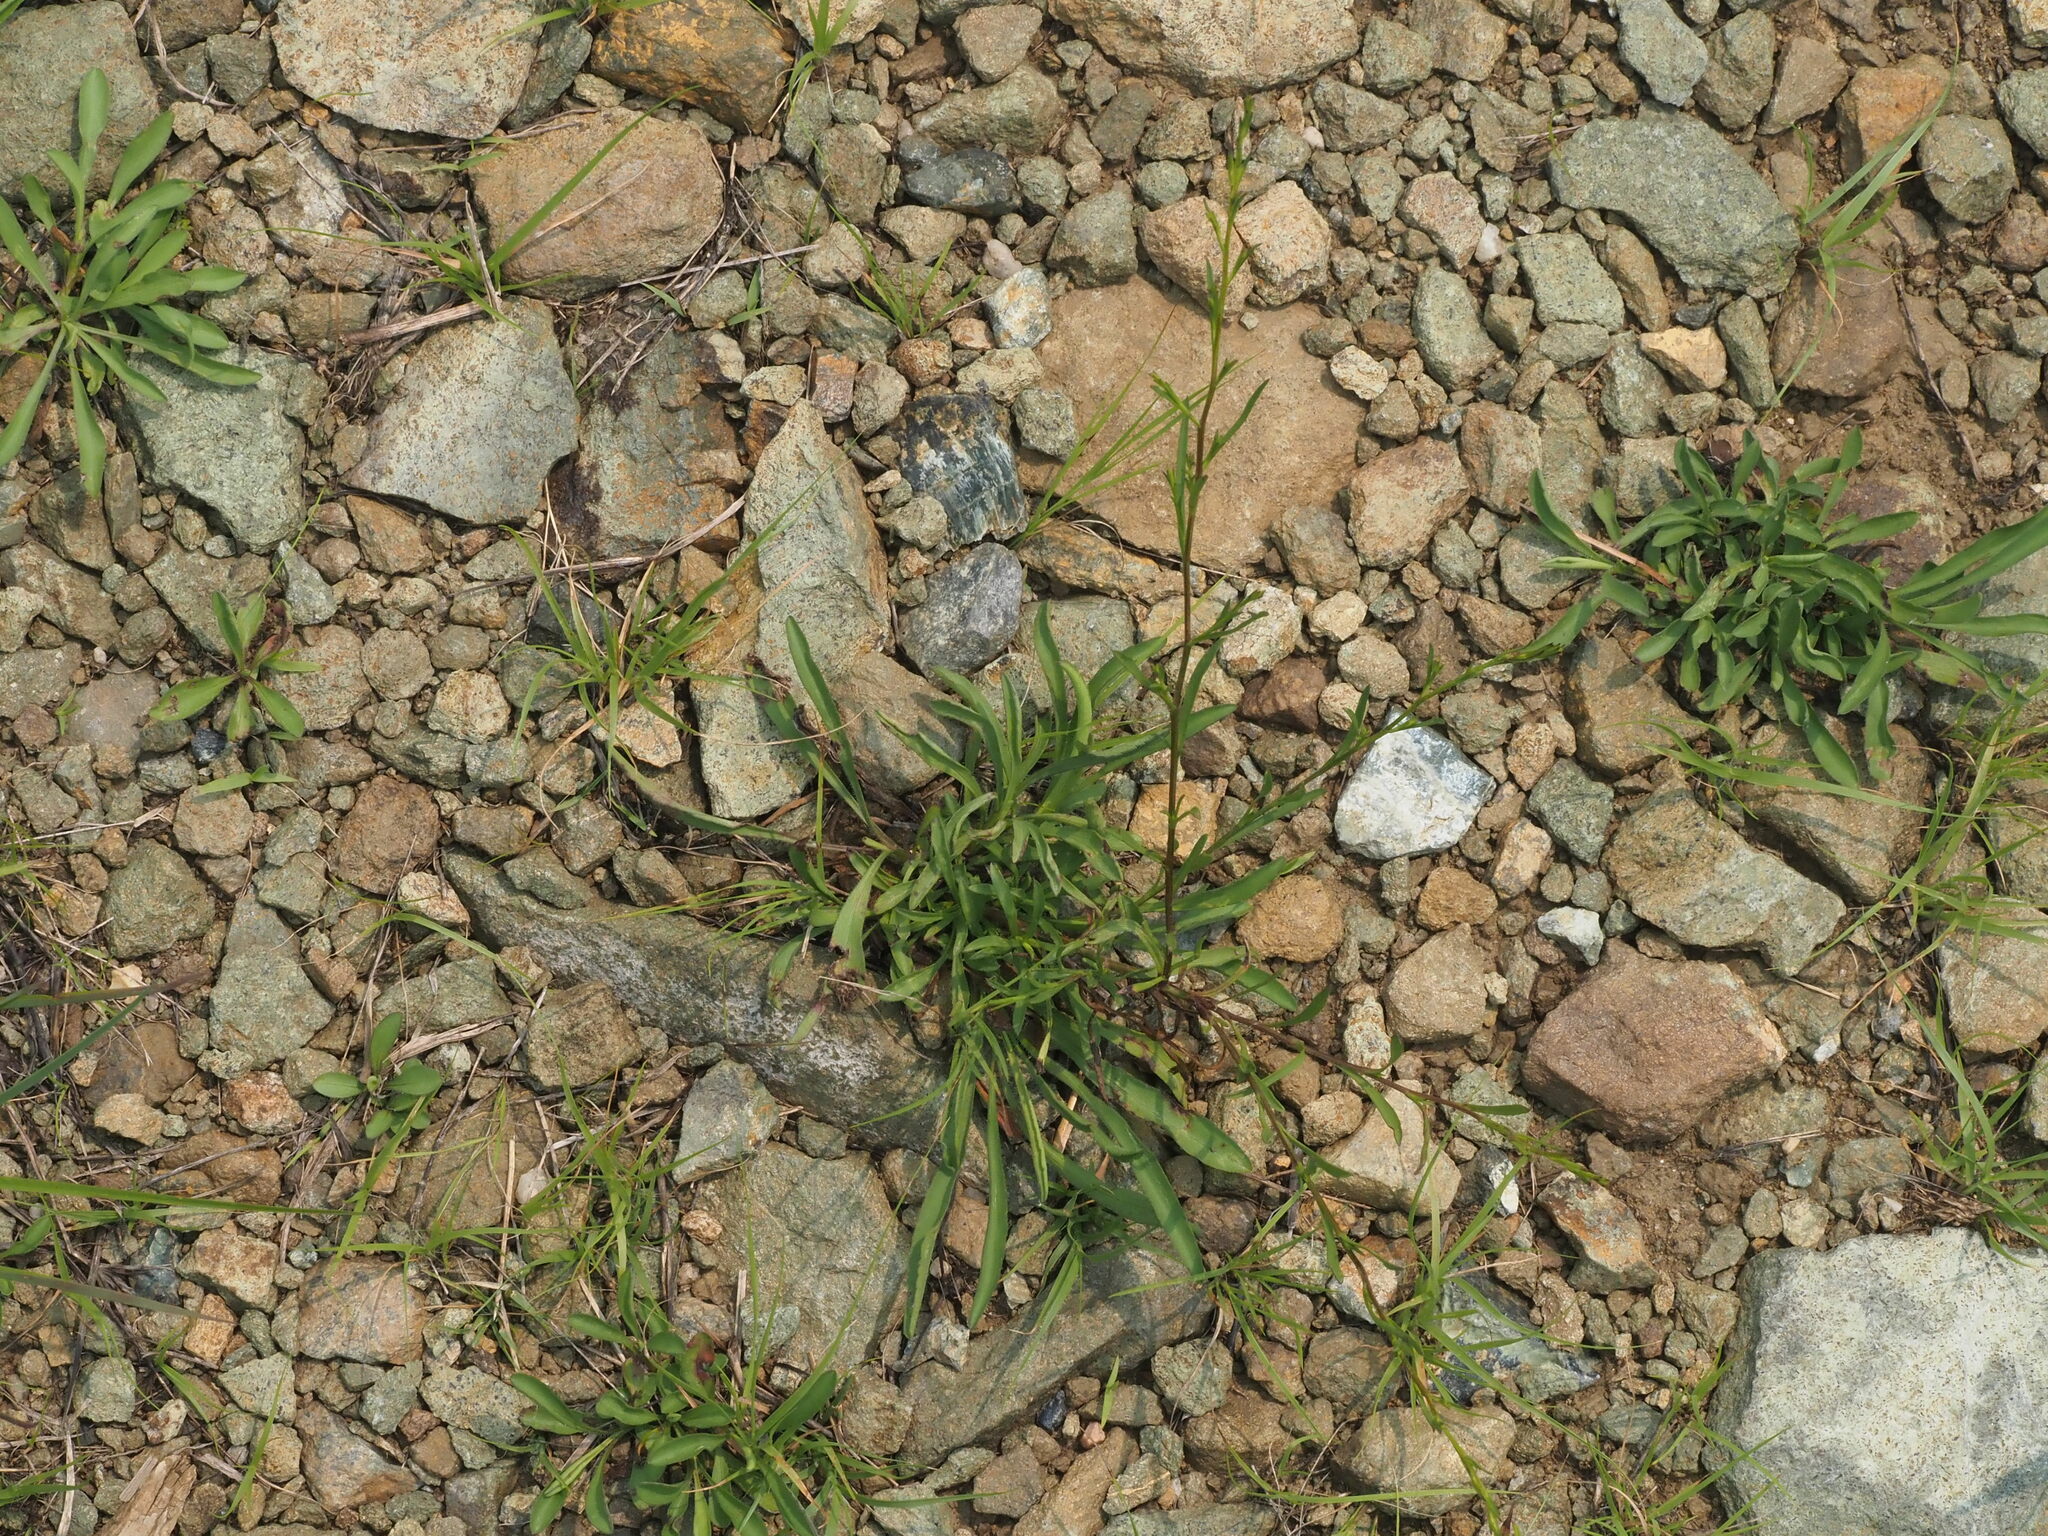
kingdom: Plantae
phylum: Tracheophyta
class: Magnoliopsida
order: Asterales
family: Asteraceae
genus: Symphyotrichum
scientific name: Symphyotrichum depauperatum
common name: Serpentine aster
